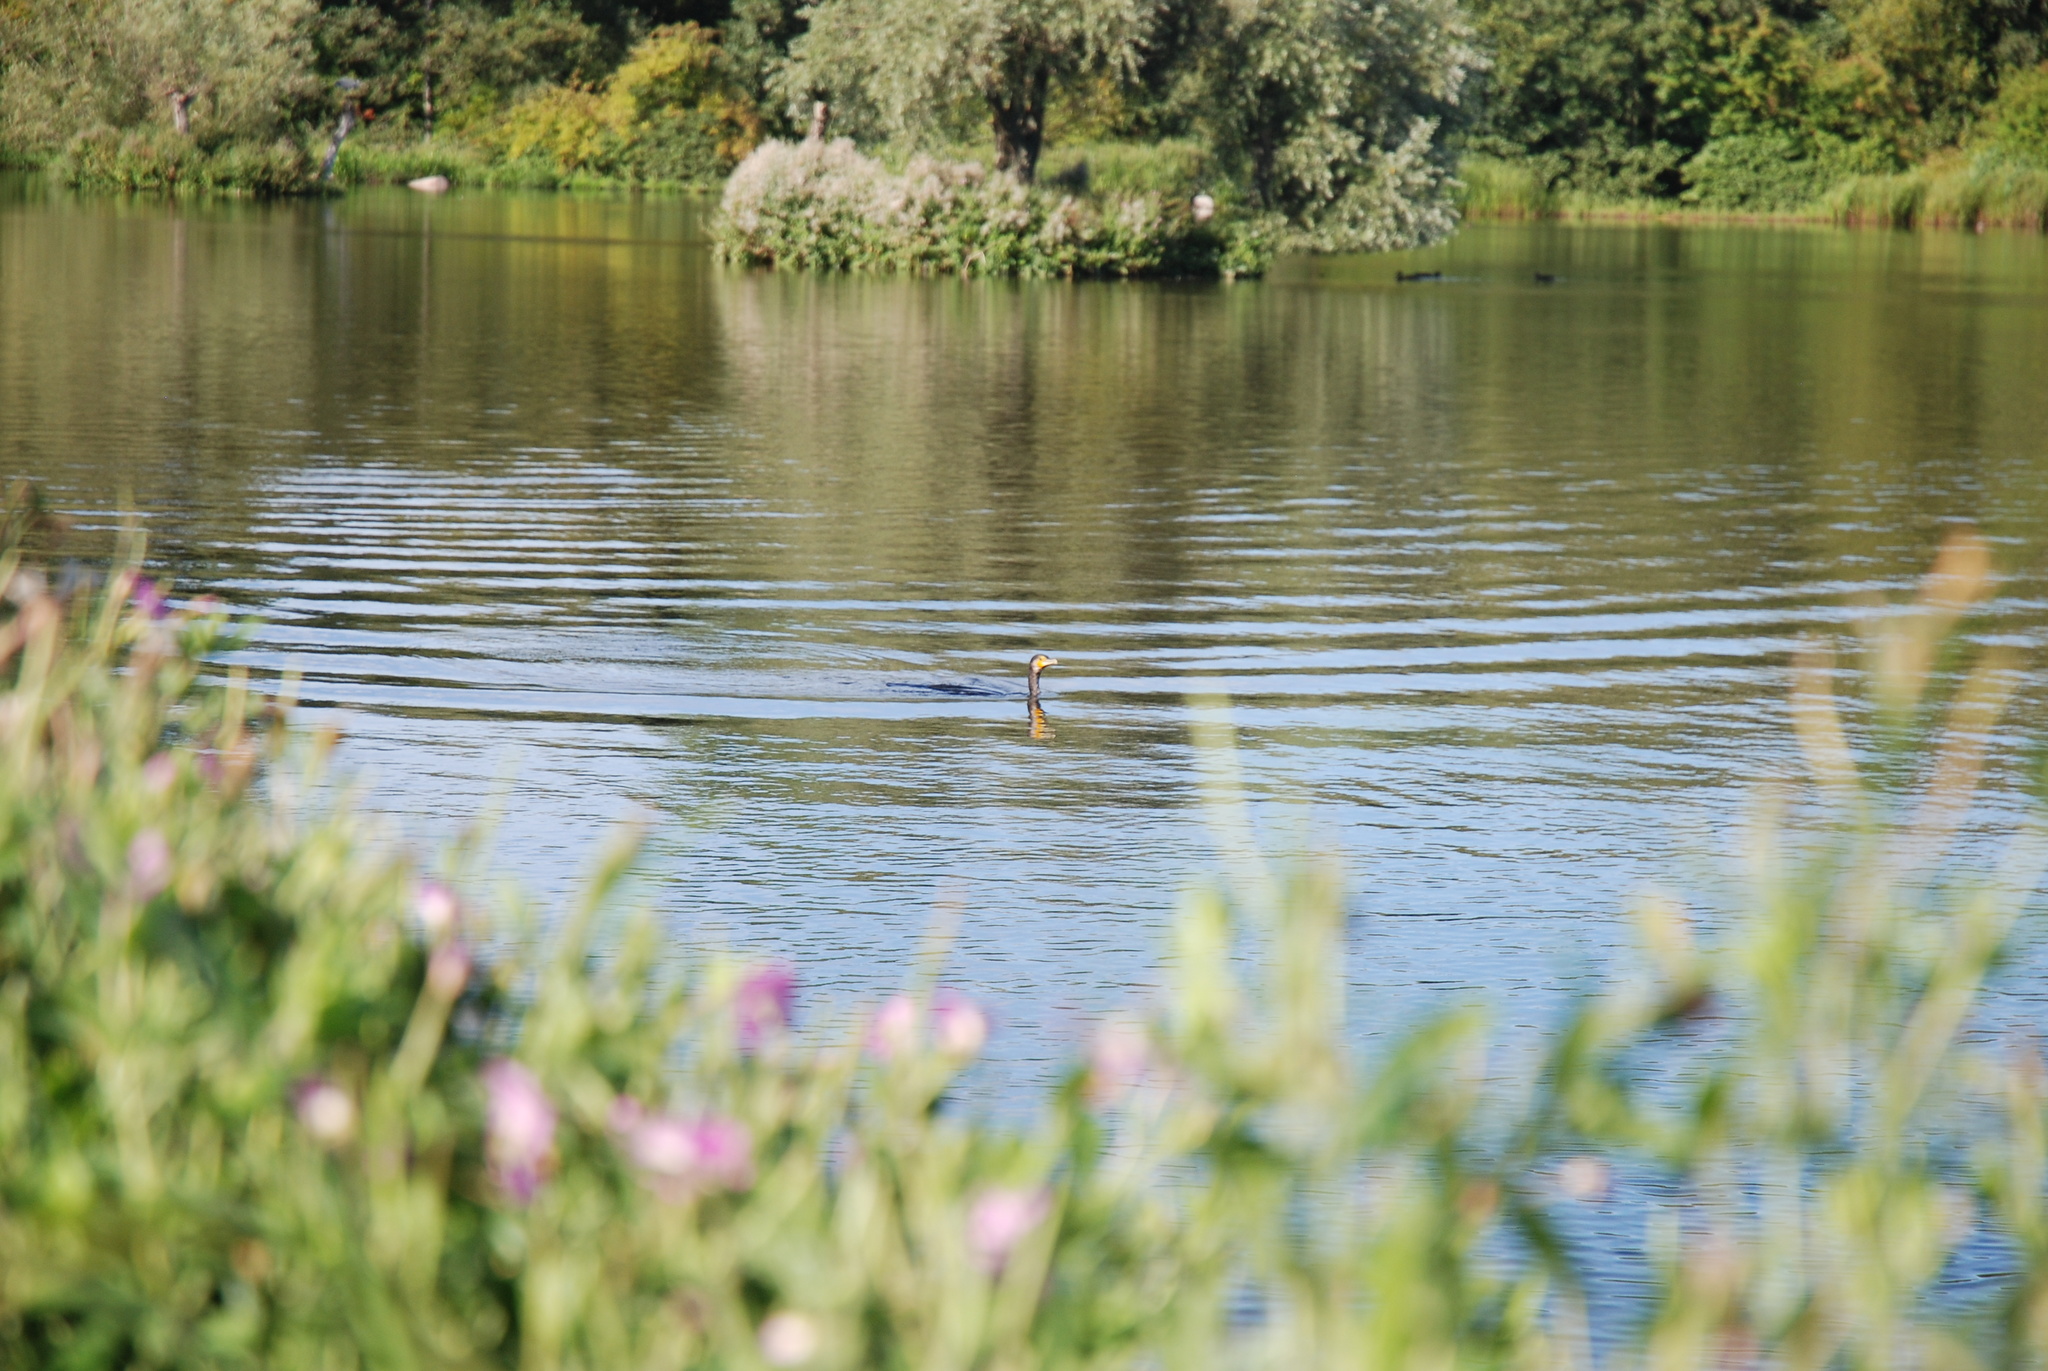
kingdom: Animalia
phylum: Chordata
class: Aves
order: Suliformes
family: Phalacrocoracidae
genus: Phalacrocorax
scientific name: Phalacrocorax carbo
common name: Great cormorant
